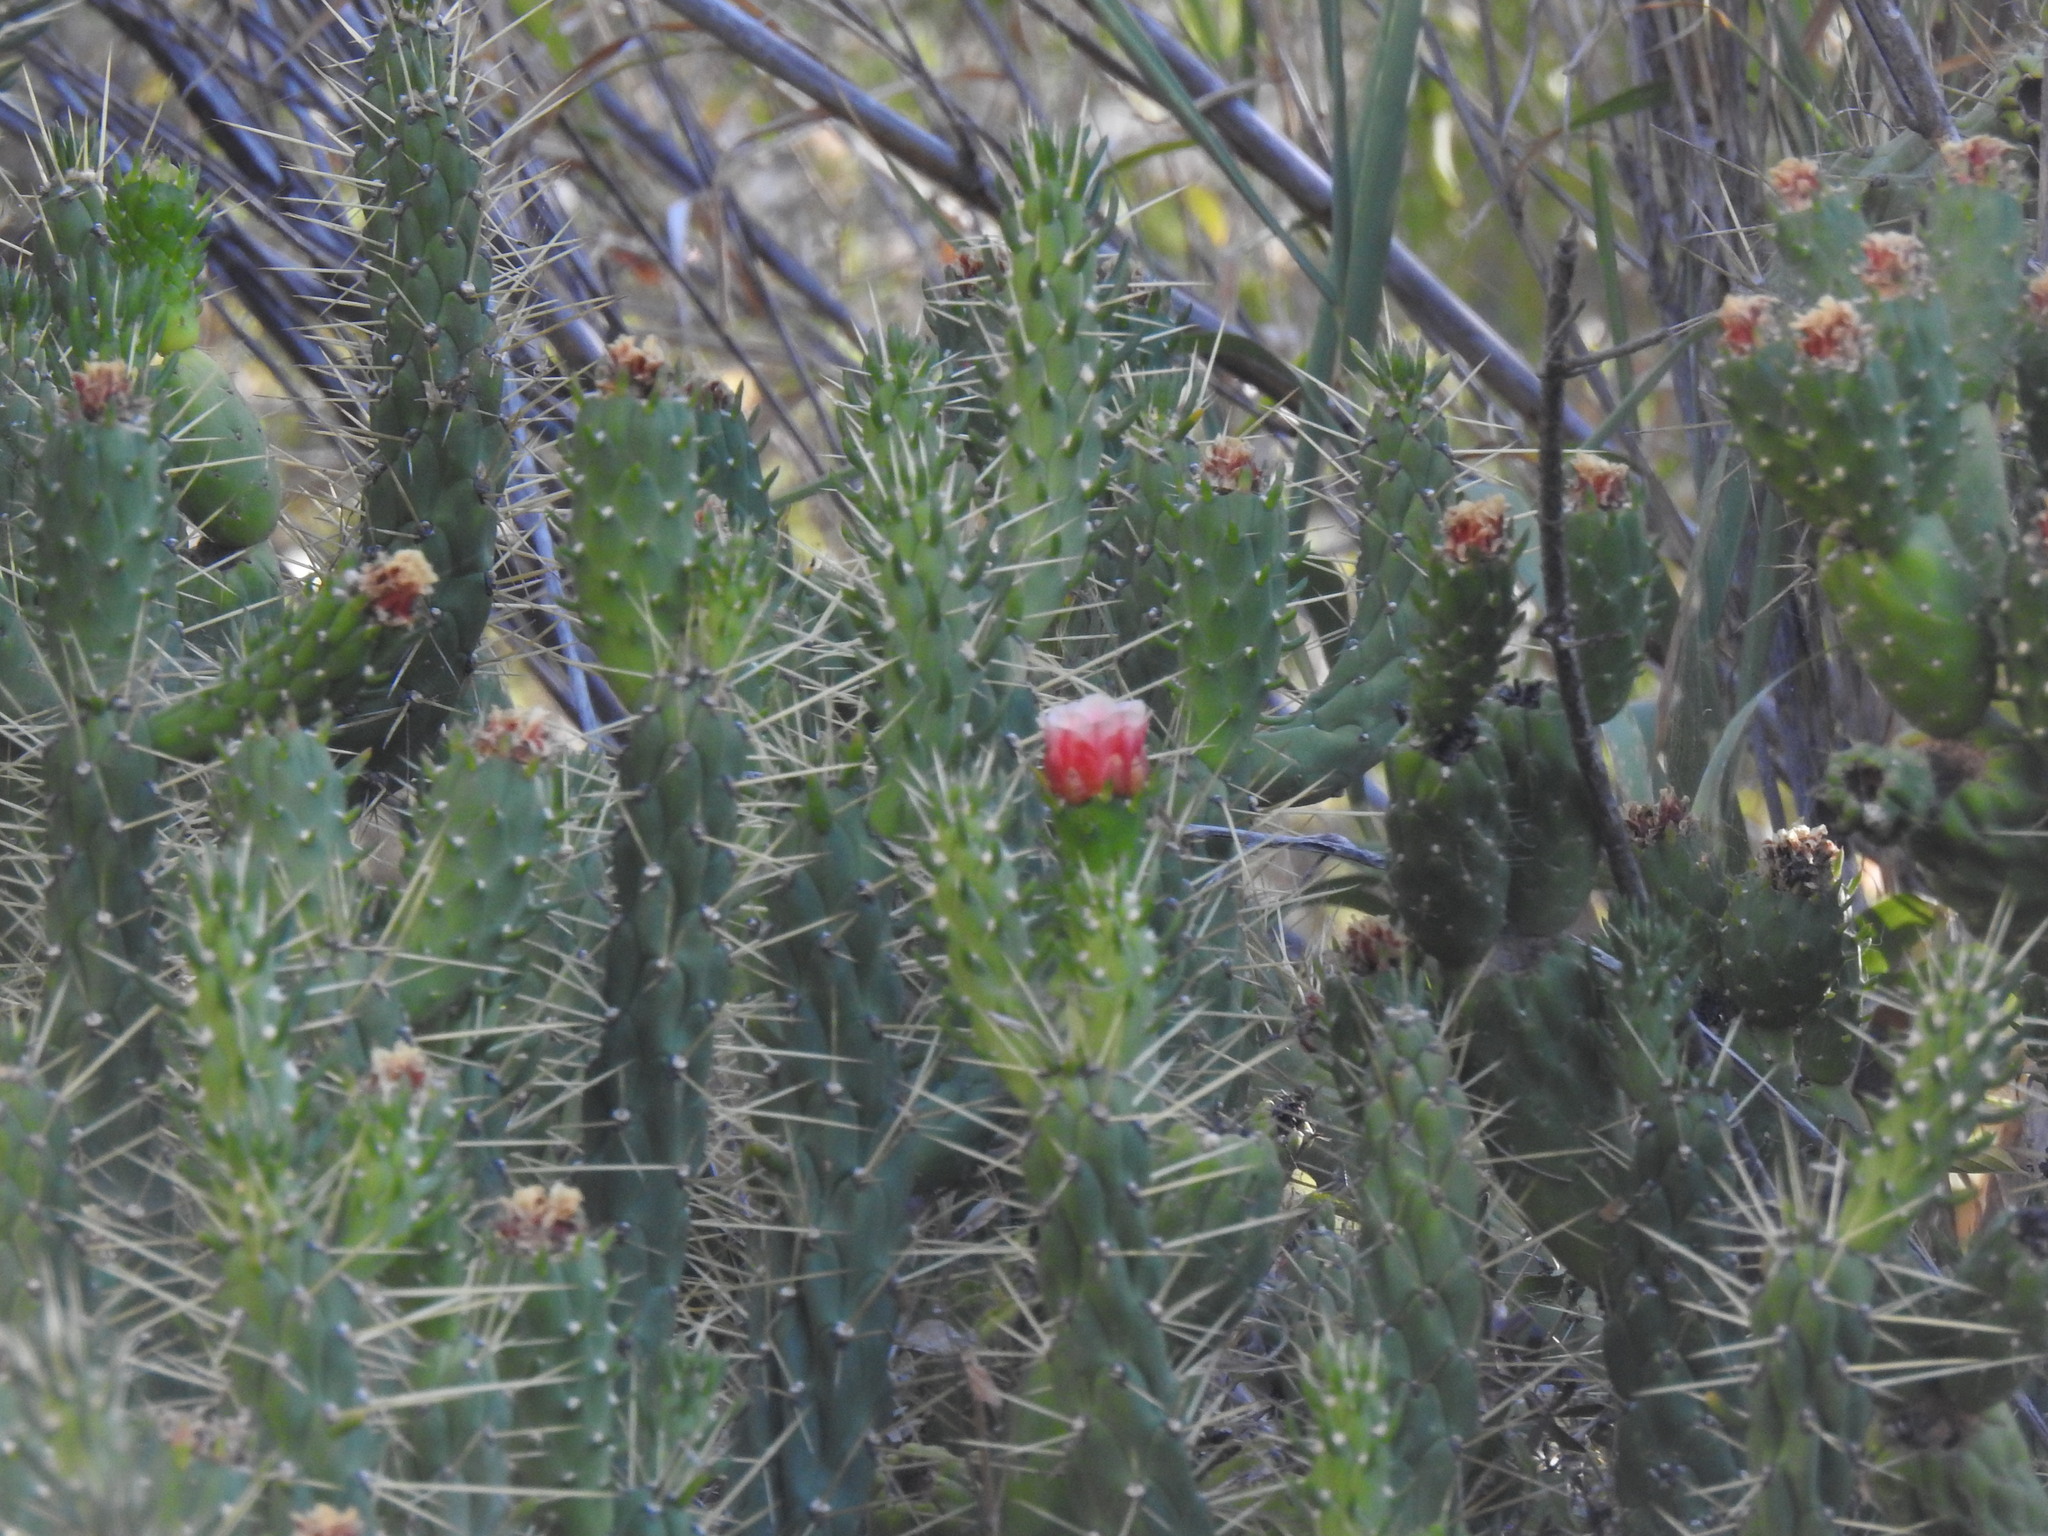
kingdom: Plantae
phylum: Tracheophyta
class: Magnoliopsida
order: Caryophyllales
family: Cactaceae
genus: Austrocylindropuntia
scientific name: Austrocylindropuntia subulata
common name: Eve's needle cactus
